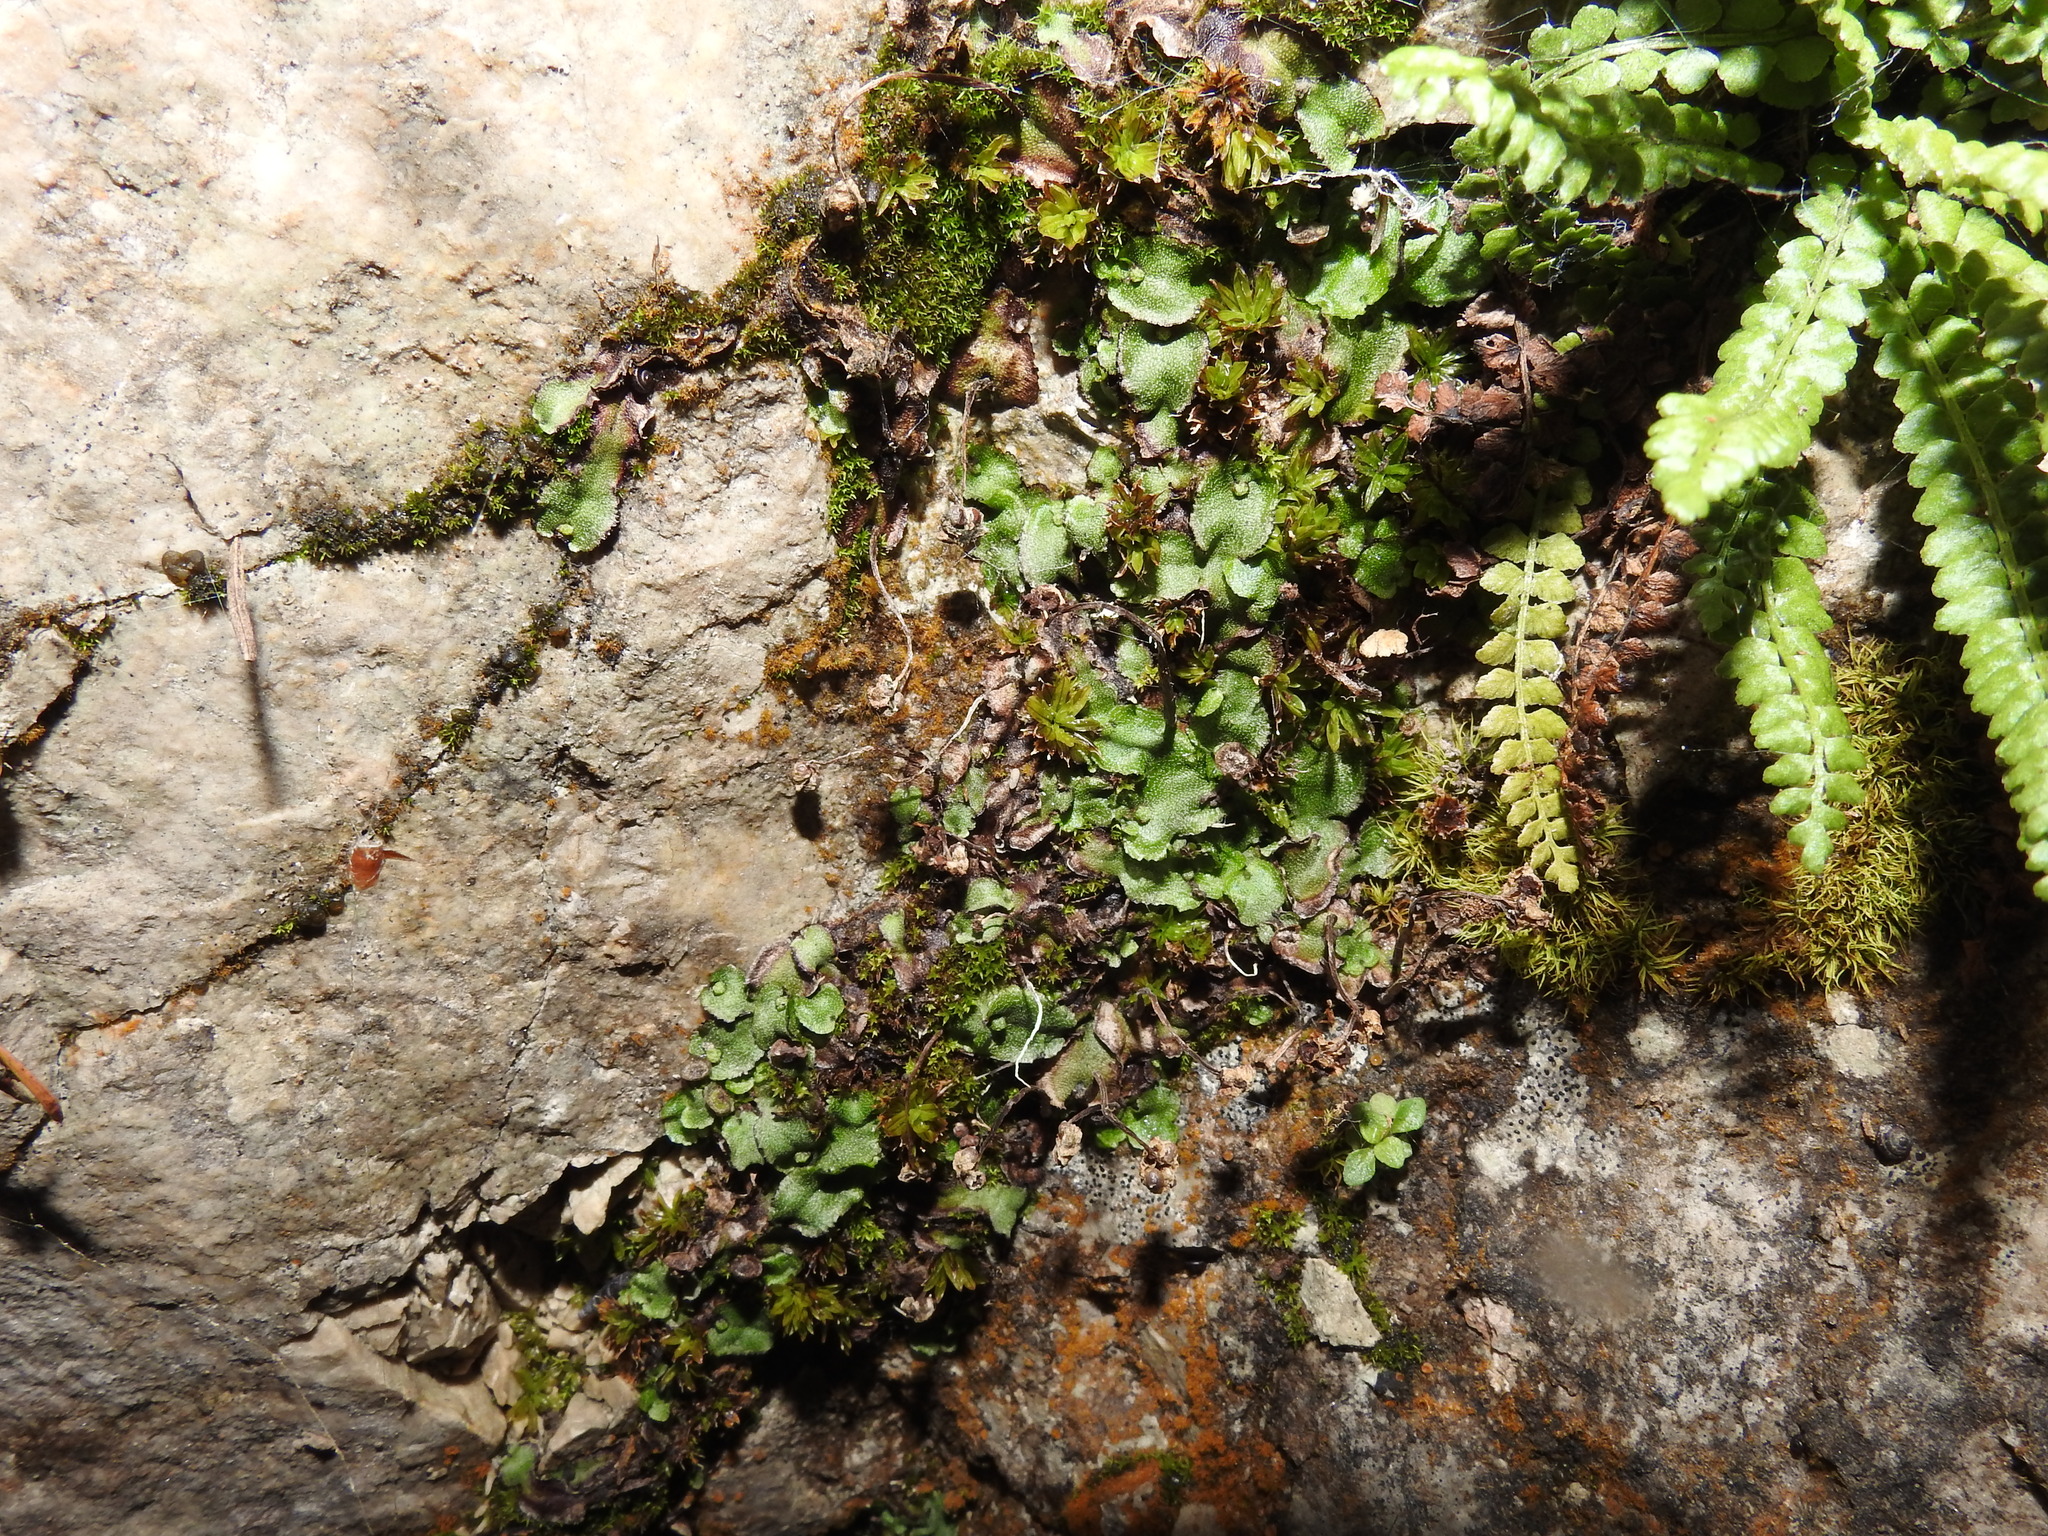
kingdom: Plantae
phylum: Marchantiophyta
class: Marchantiopsida
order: Marchantiales
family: Marchantiaceae
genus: Marchantia
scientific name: Marchantia quadrata
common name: Narrow mushroom-headed liverwort
